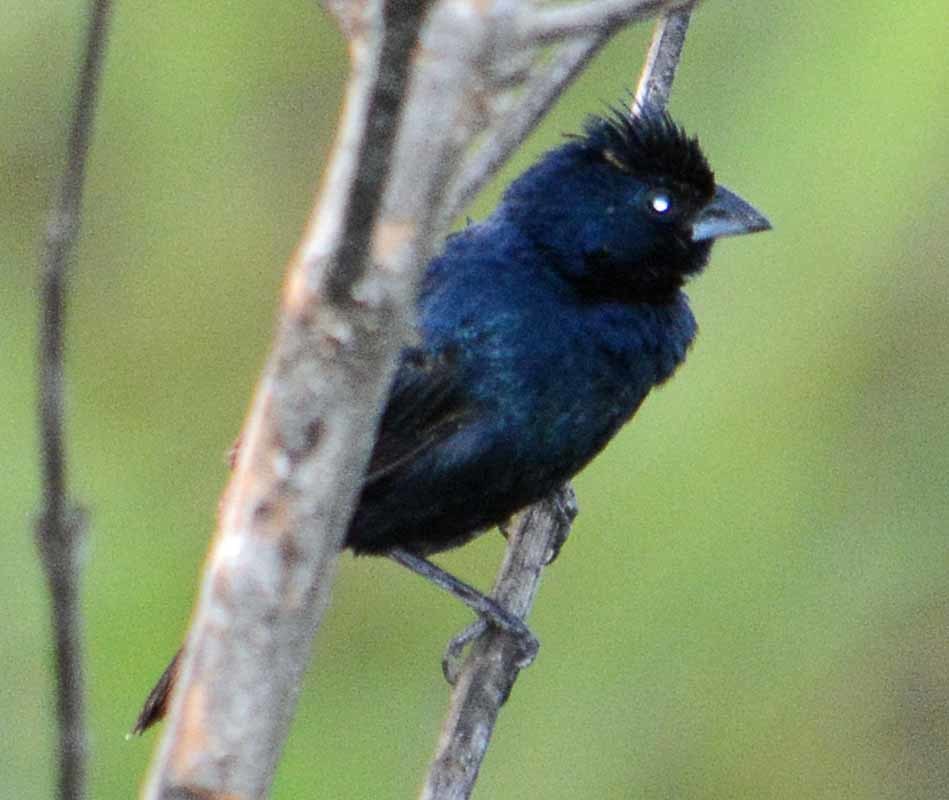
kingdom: Animalia
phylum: Chordata
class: Aves
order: Passeriformes
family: Thraupidae
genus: Volatinia
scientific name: Volatinia jacarina
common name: Blue-black grassquit
